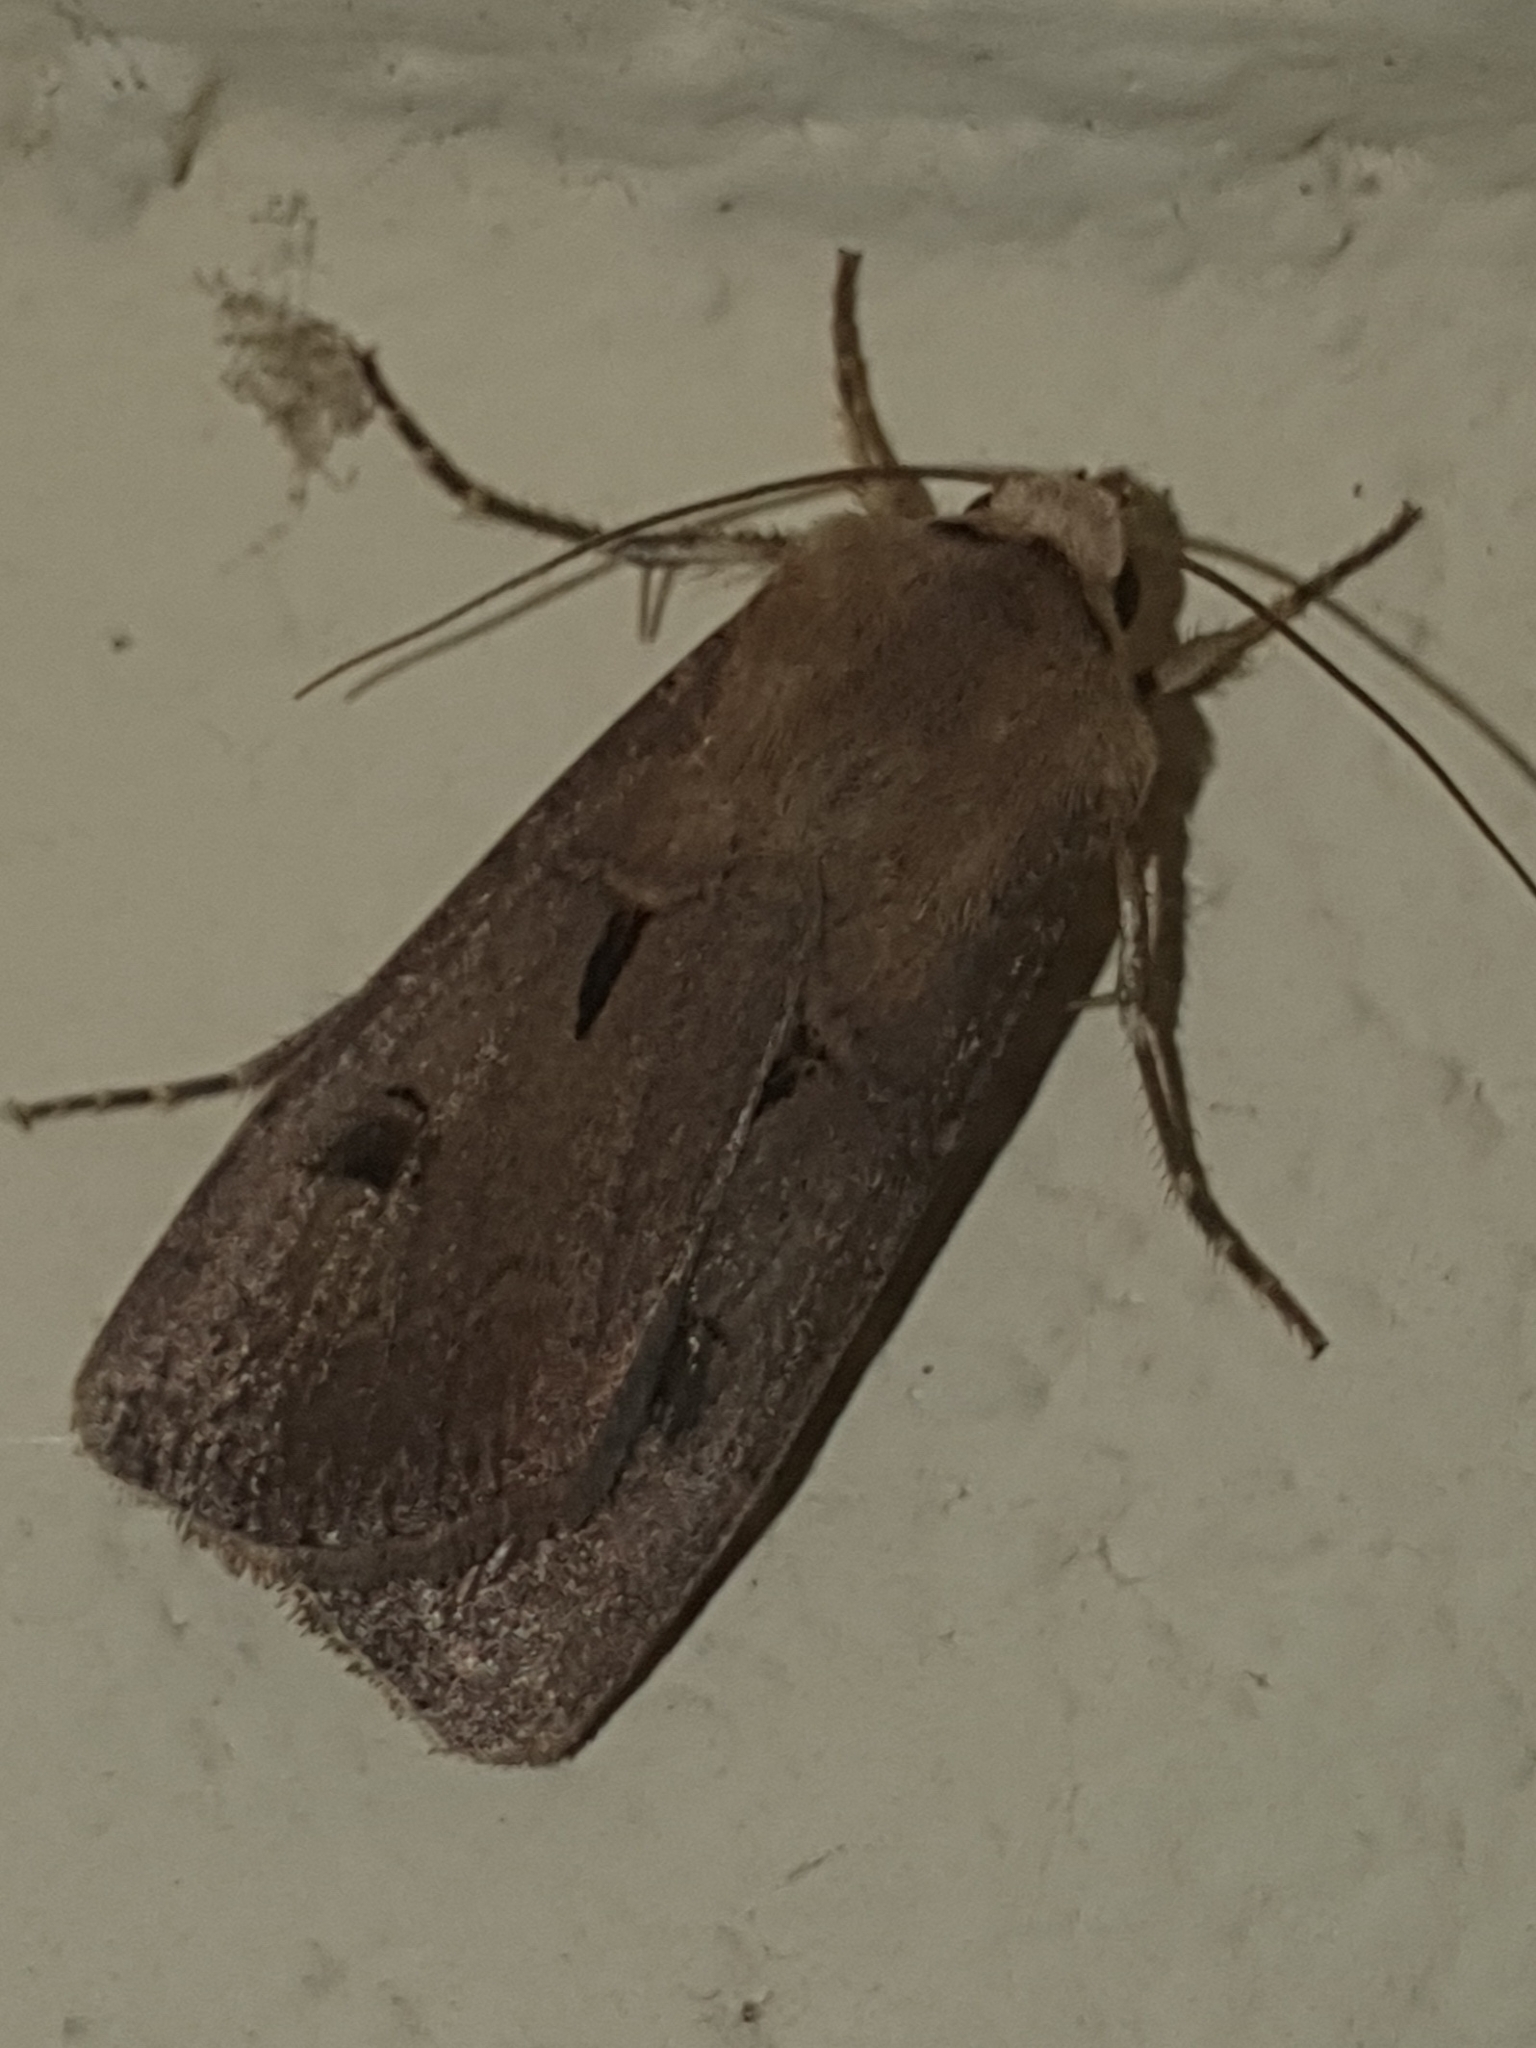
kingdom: Animalia
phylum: Arthropoda
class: Insecta
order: Lepidoptera
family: Noctuidae
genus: Agrotis
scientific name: Agrotis exclamationis
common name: Heart and dart
